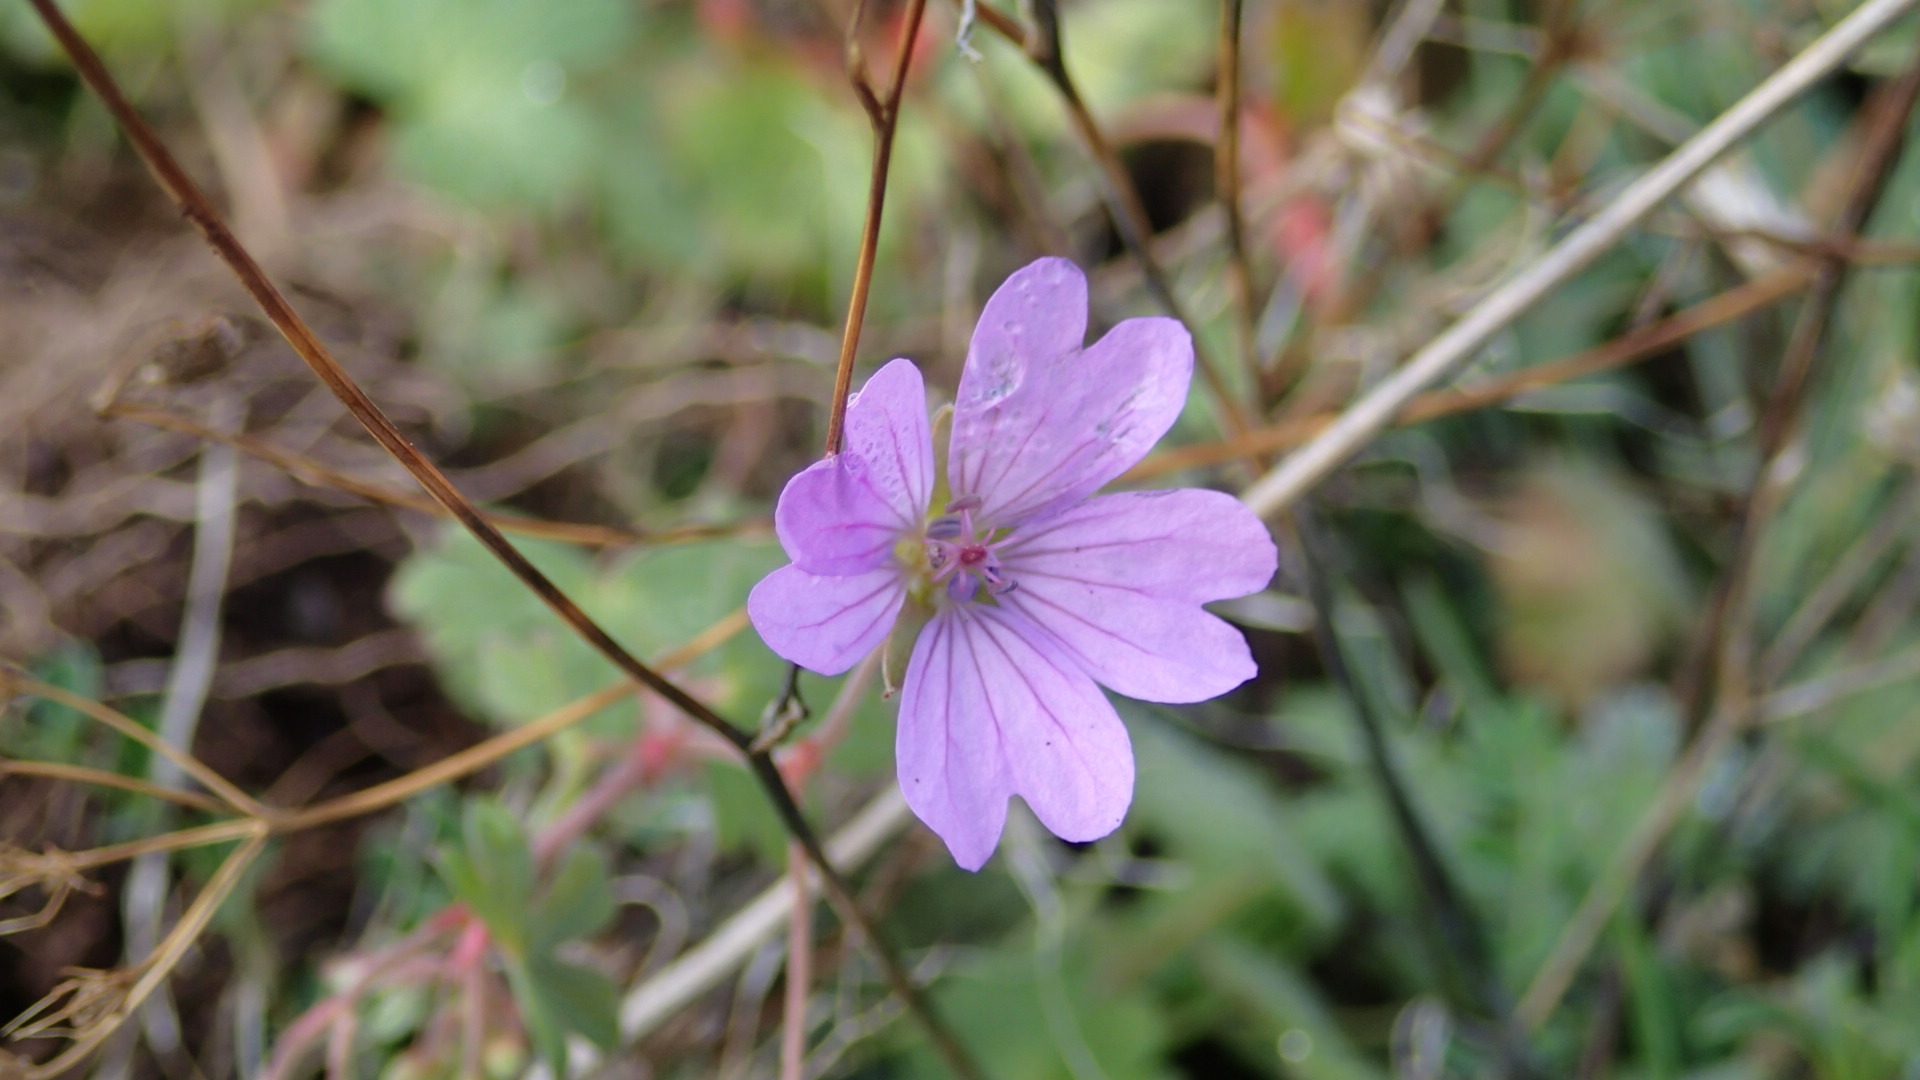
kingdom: Plantae
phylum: Tracheophyta
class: Magnoliopsida
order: Geraniales
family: Geraniaceae
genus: Geranium
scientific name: Geranium pyrenaicum
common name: Hedgerow crane's-bill
